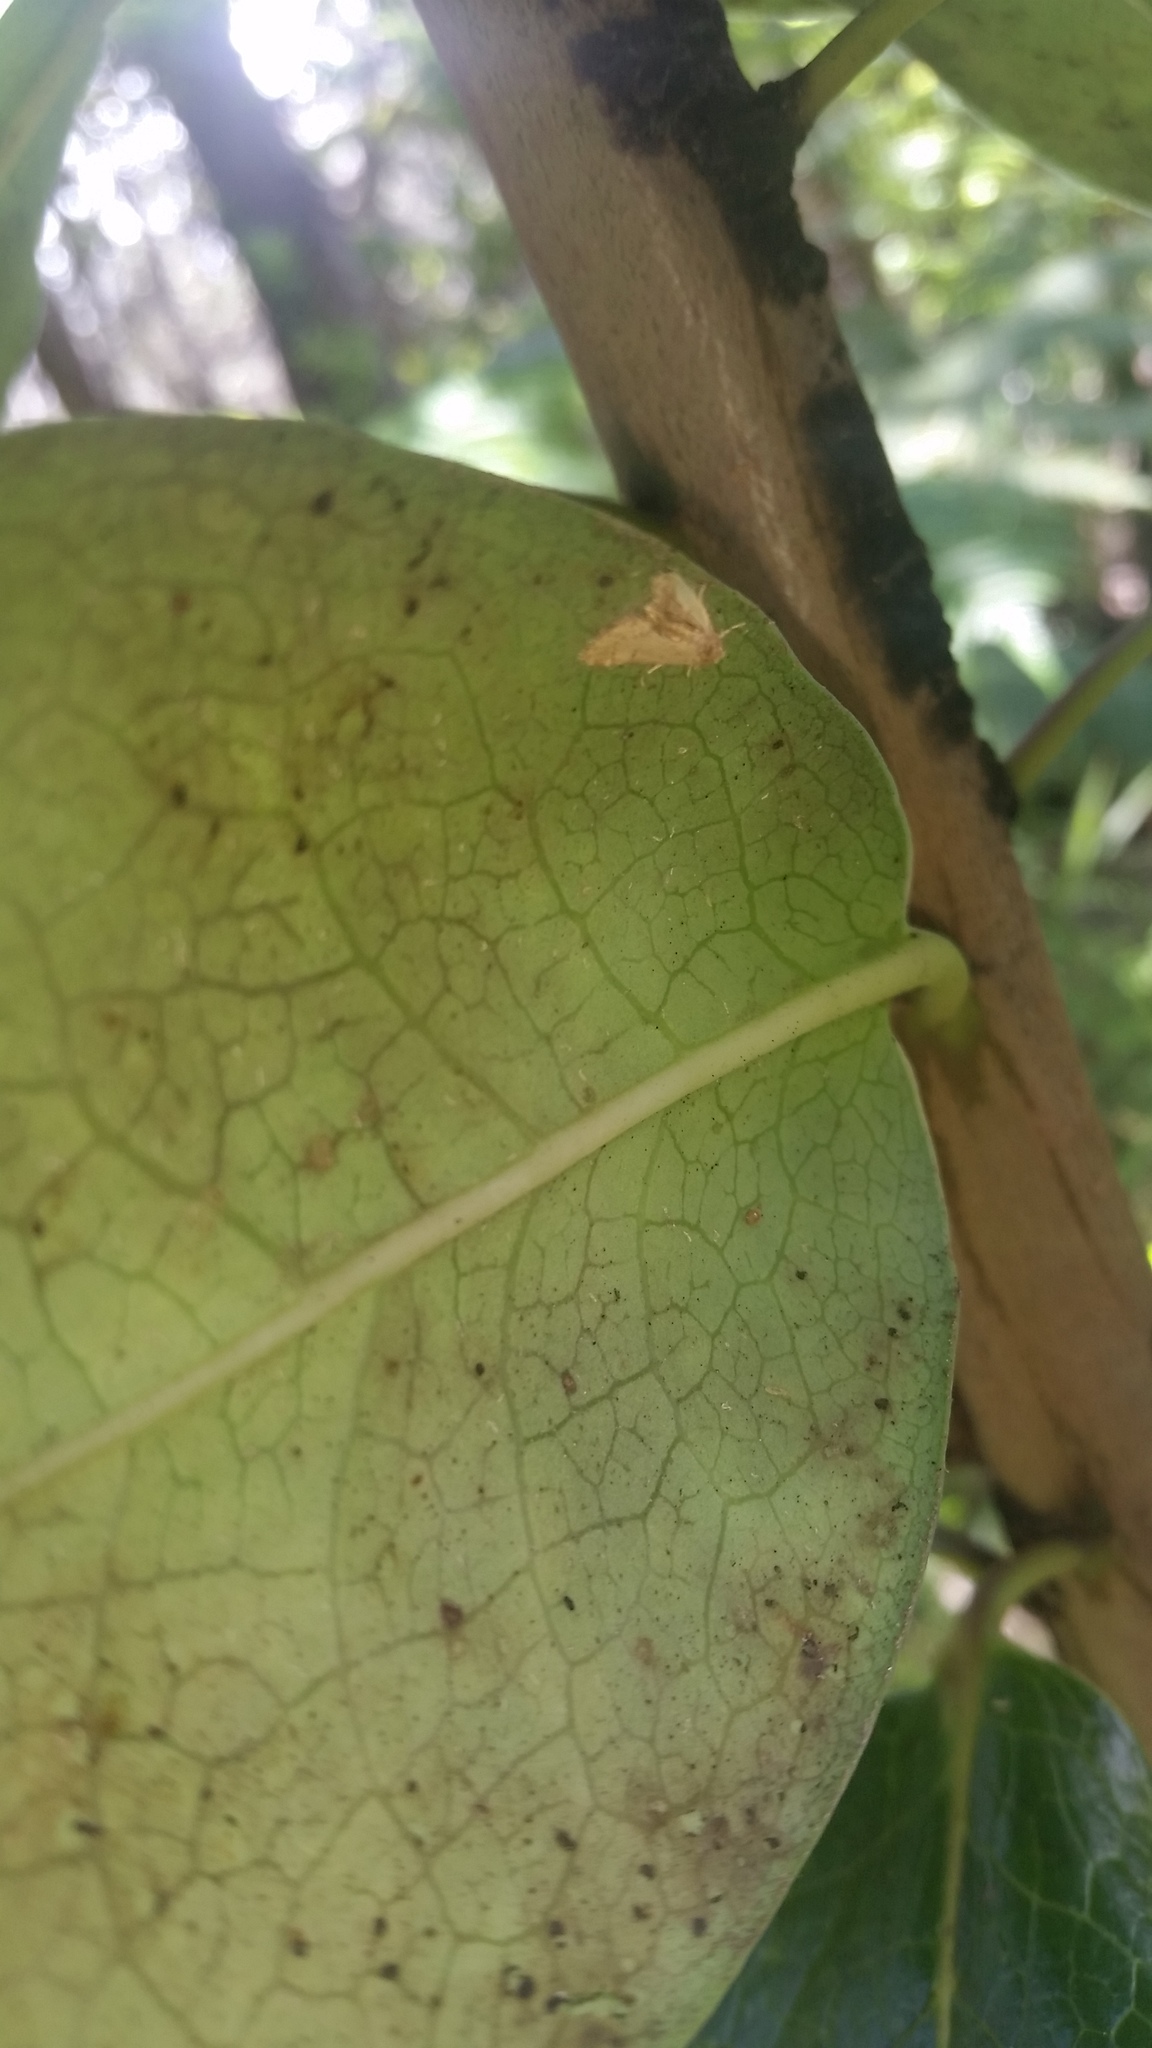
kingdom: Plantae
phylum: Tracheophyta
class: Magnoliopsida
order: Aquifoliales
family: Aquifoliaceae
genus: Ilex
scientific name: Ilex anomala
